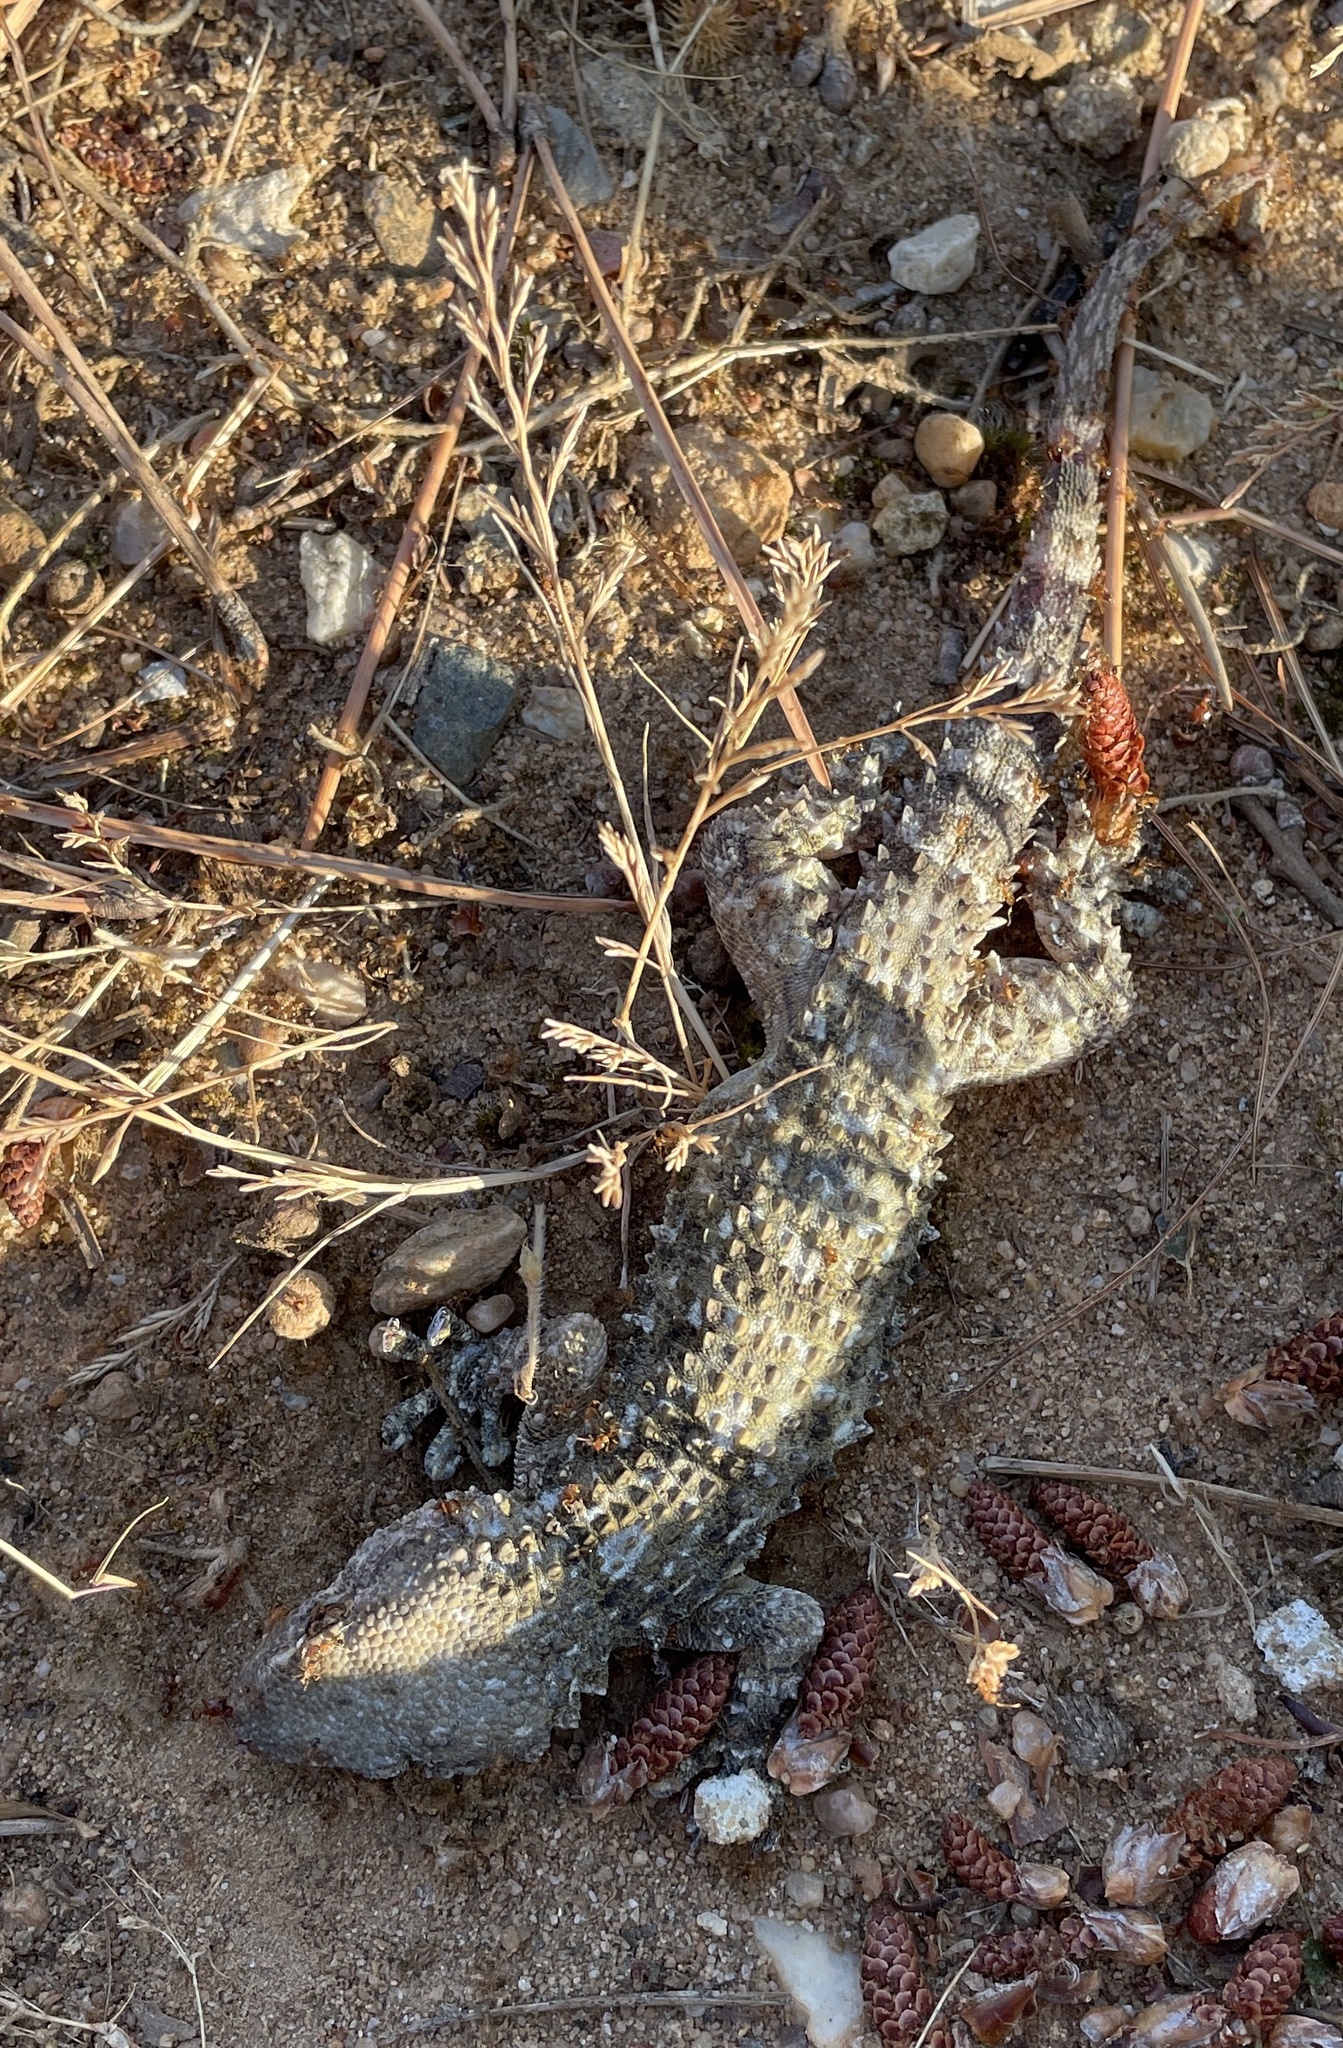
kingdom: Animalia
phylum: Chordata
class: Squamata
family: Phyllodactylidae
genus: Tarentola
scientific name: Tarentola mauritanica
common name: Moorish gecko
